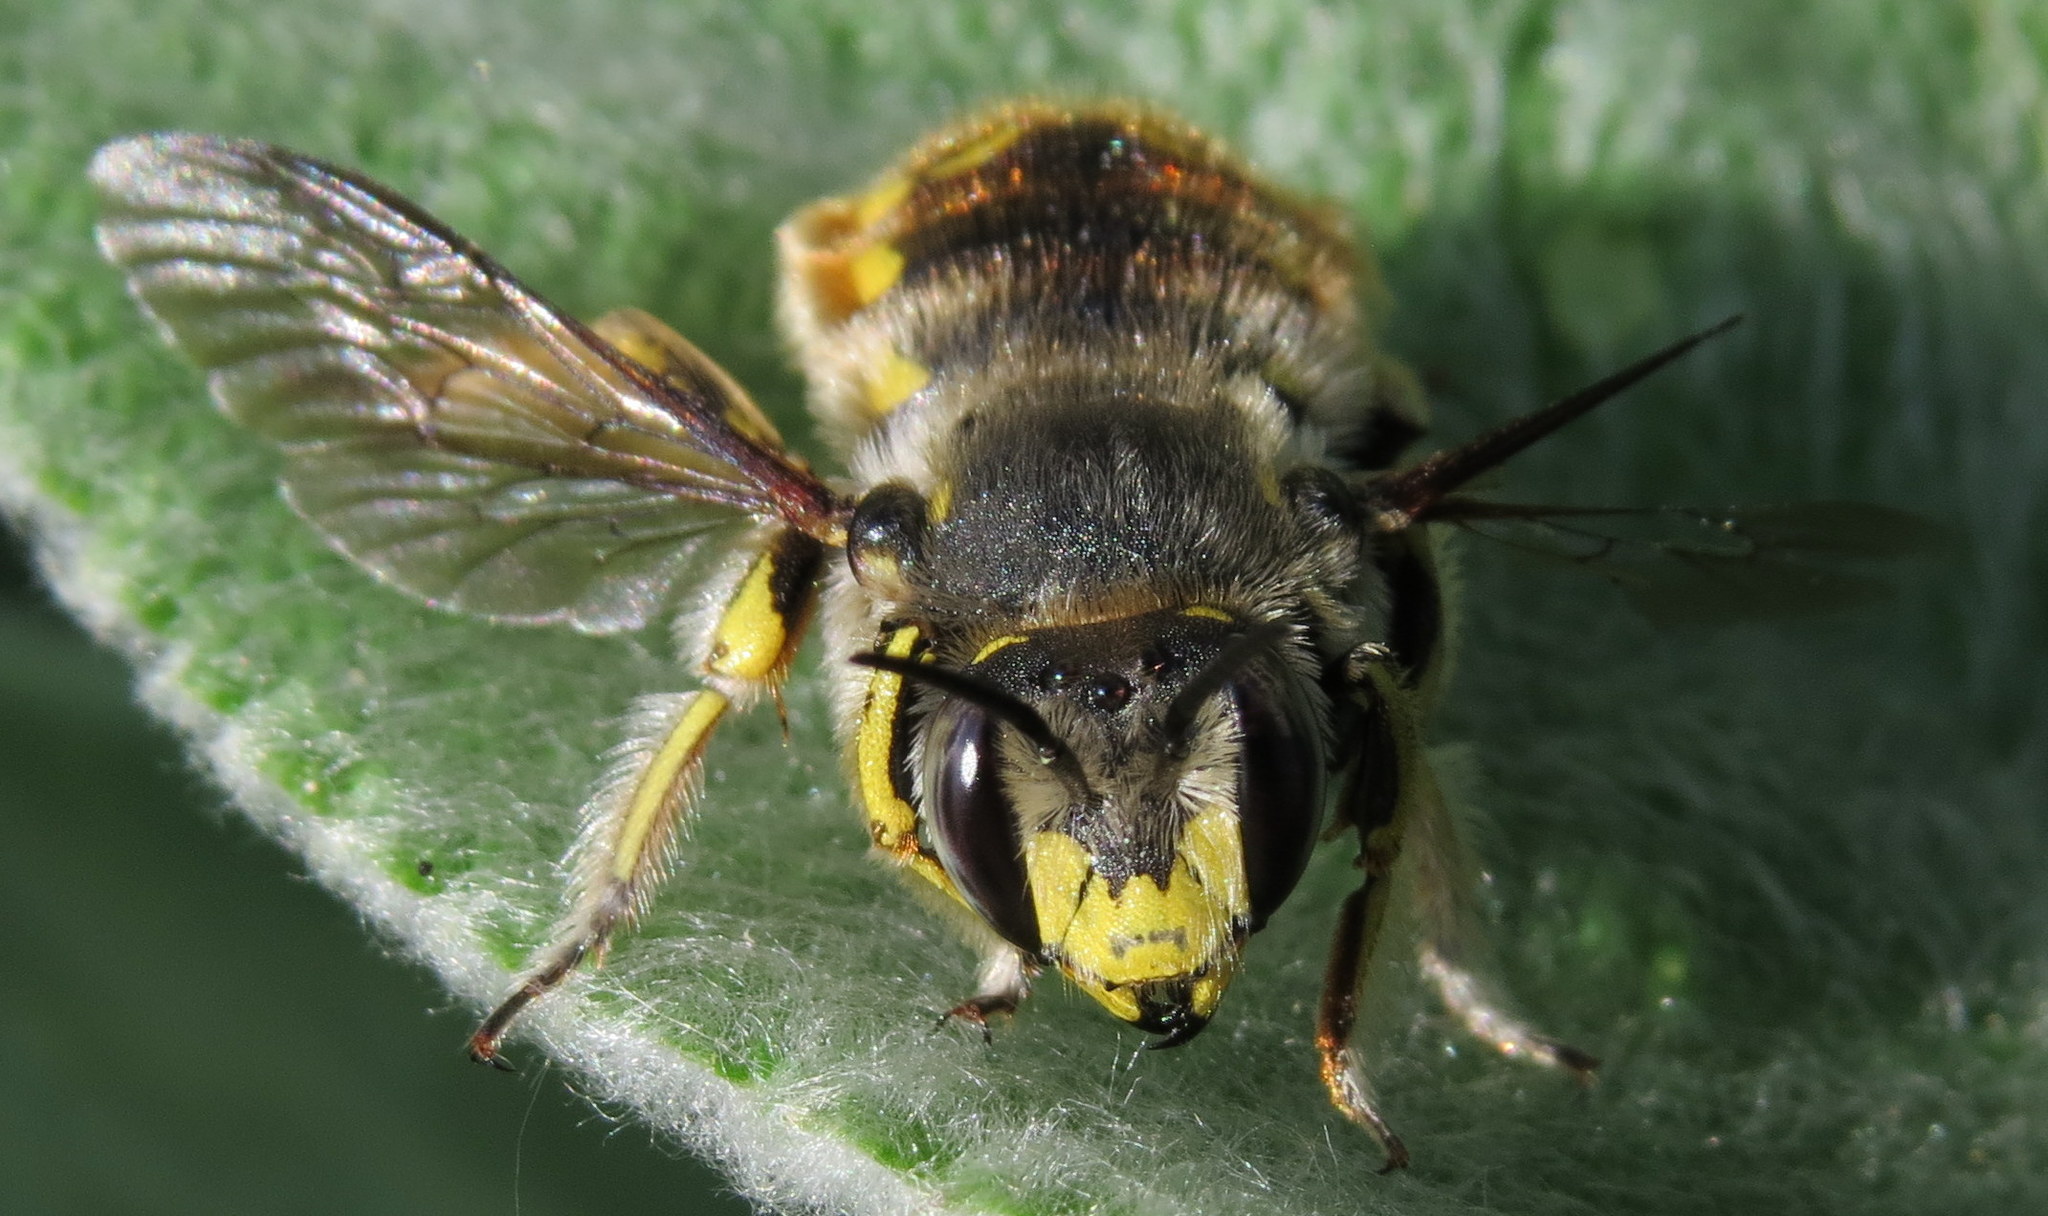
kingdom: Animalia
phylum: Arthropoda
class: Insecta
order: Hymenoptera
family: Megachilidae
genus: Anthidium
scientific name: Anthidium manicatum
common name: Wool carder bee
